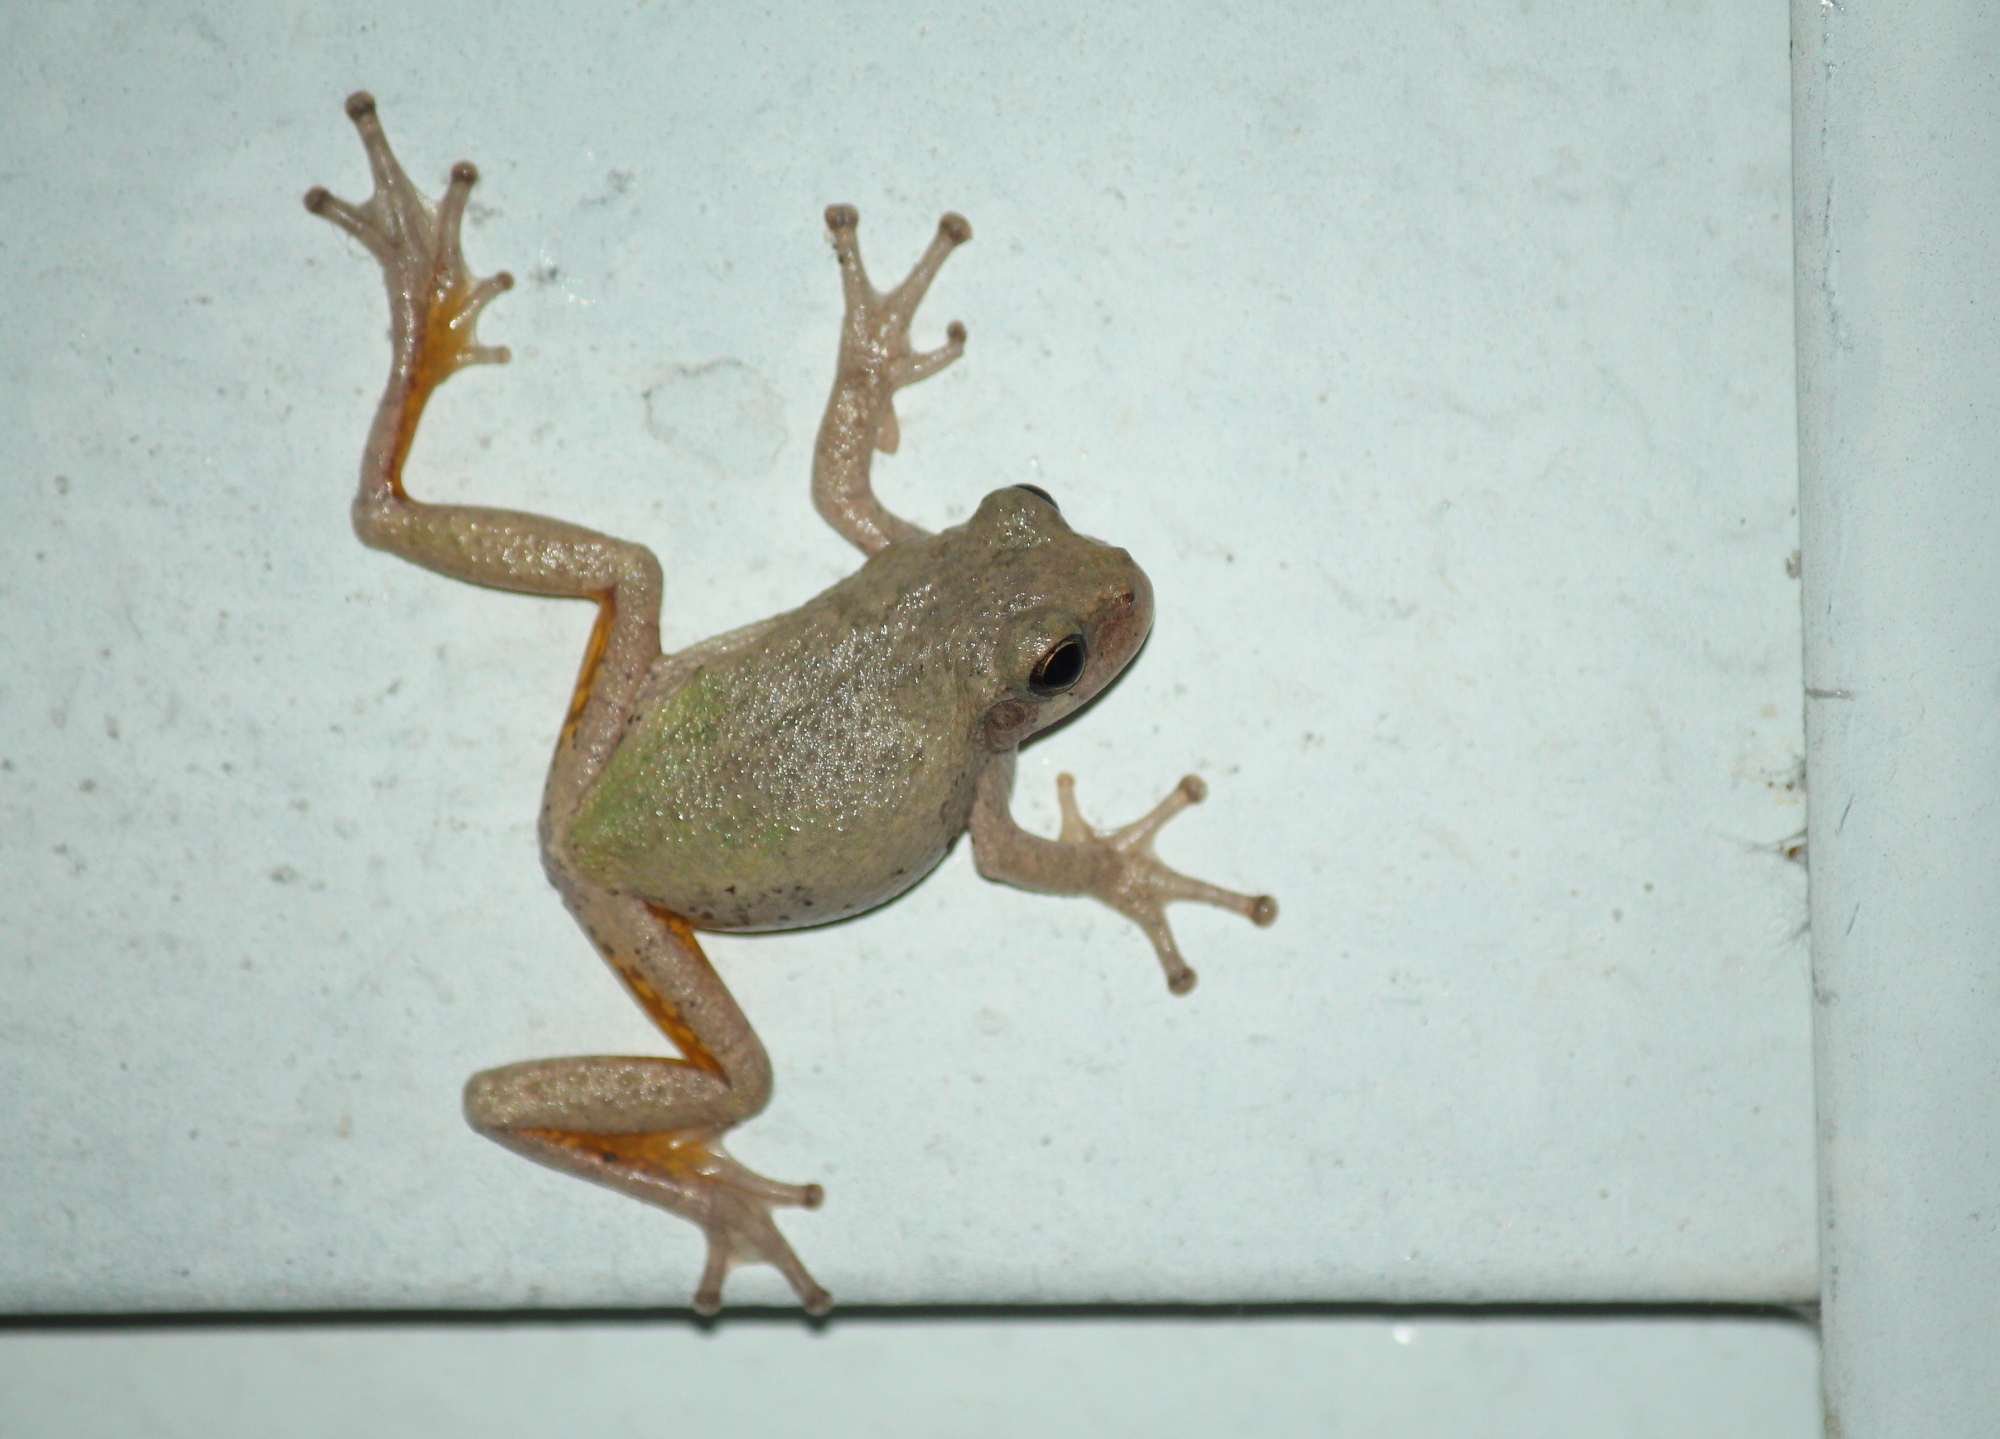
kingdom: Animalia
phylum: Chordata
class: Amphibia
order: Anura
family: Hylidae
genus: Hyla
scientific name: Hyla
